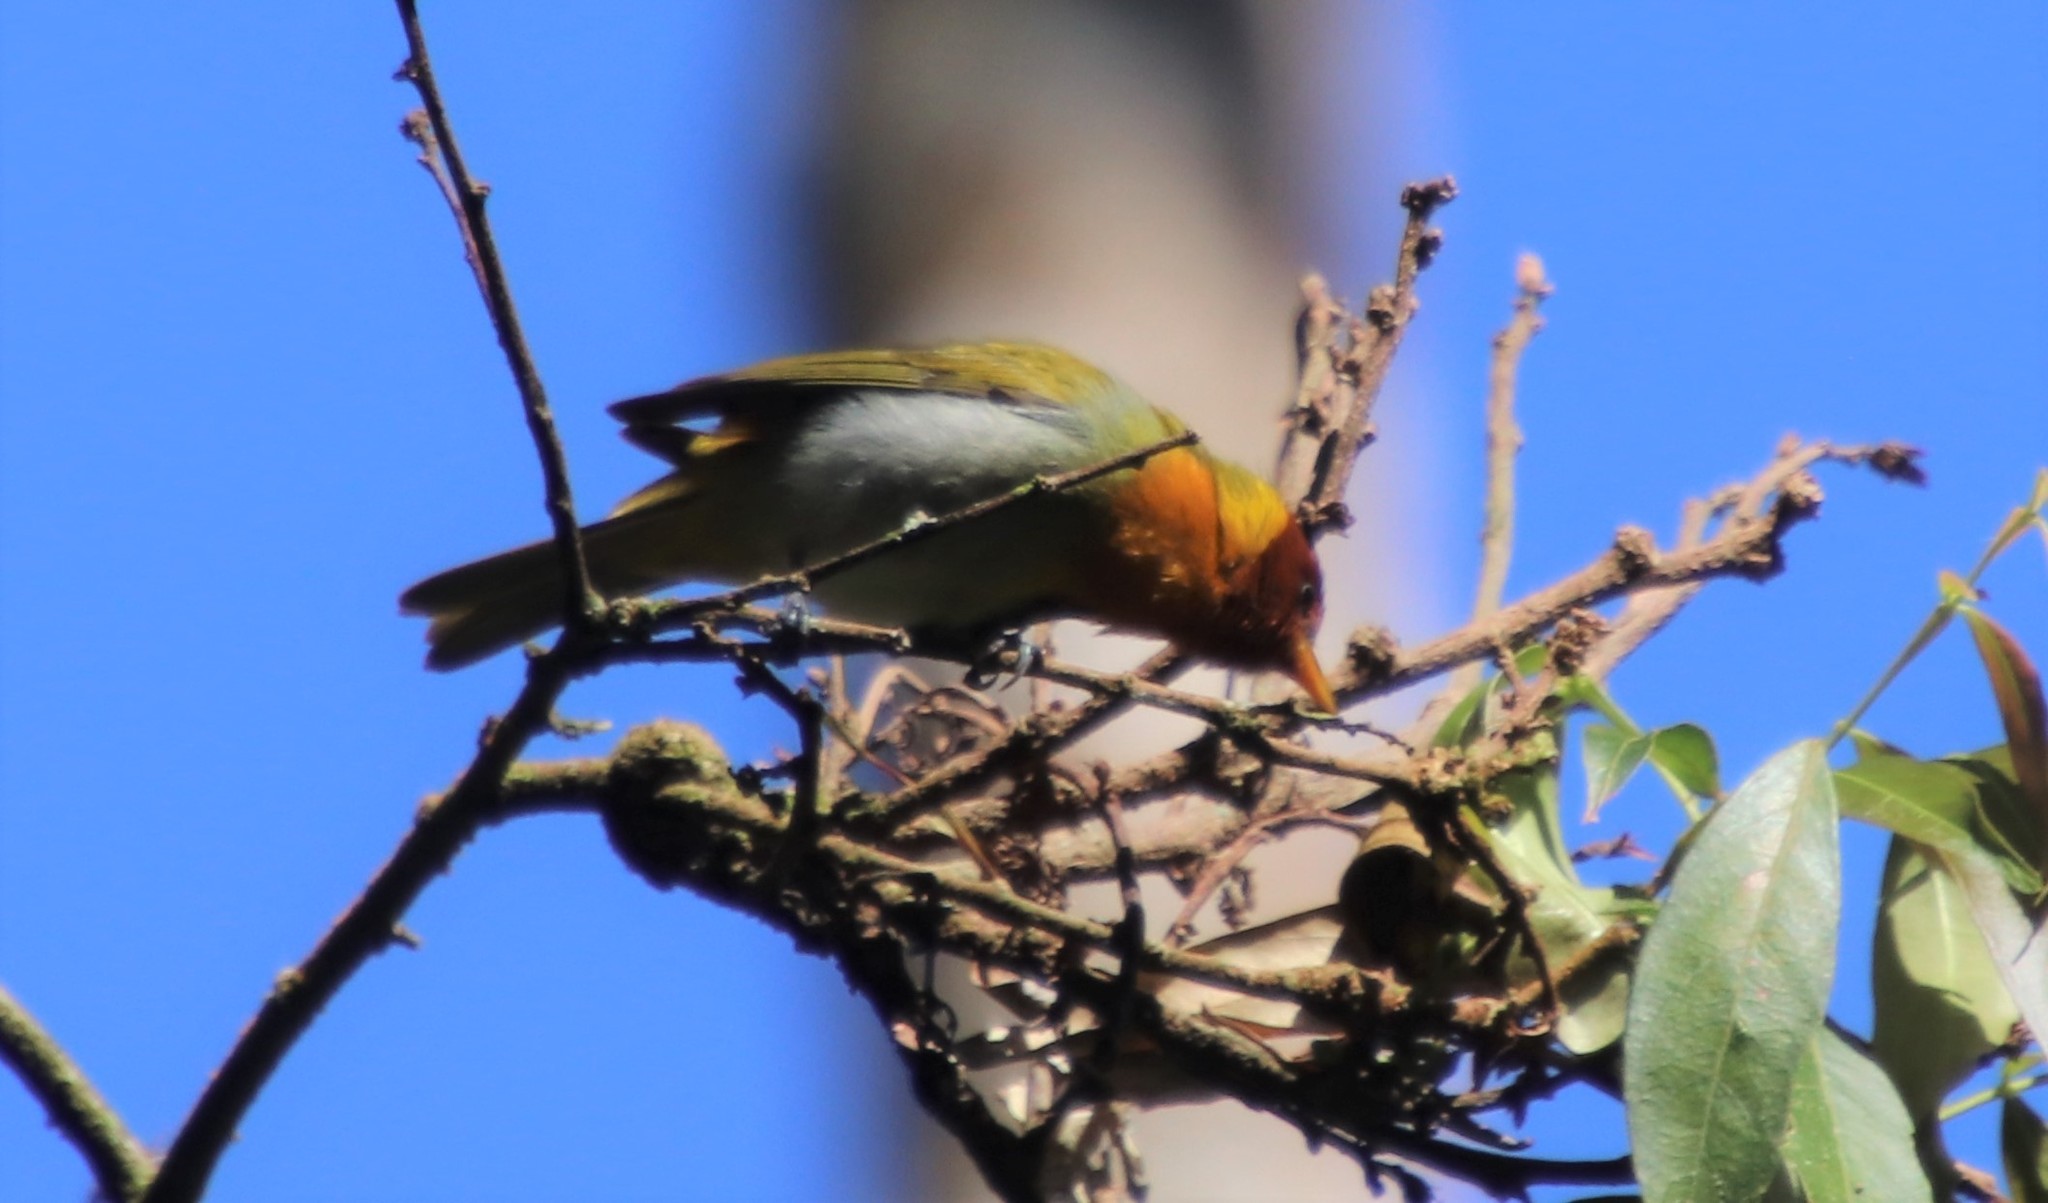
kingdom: Animalia
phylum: Chordata
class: Aves
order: Passeriformes
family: Thraupidae
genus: Hemithraupis
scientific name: Hemithraupis ruficapilla
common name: Rufous-headed tanager
